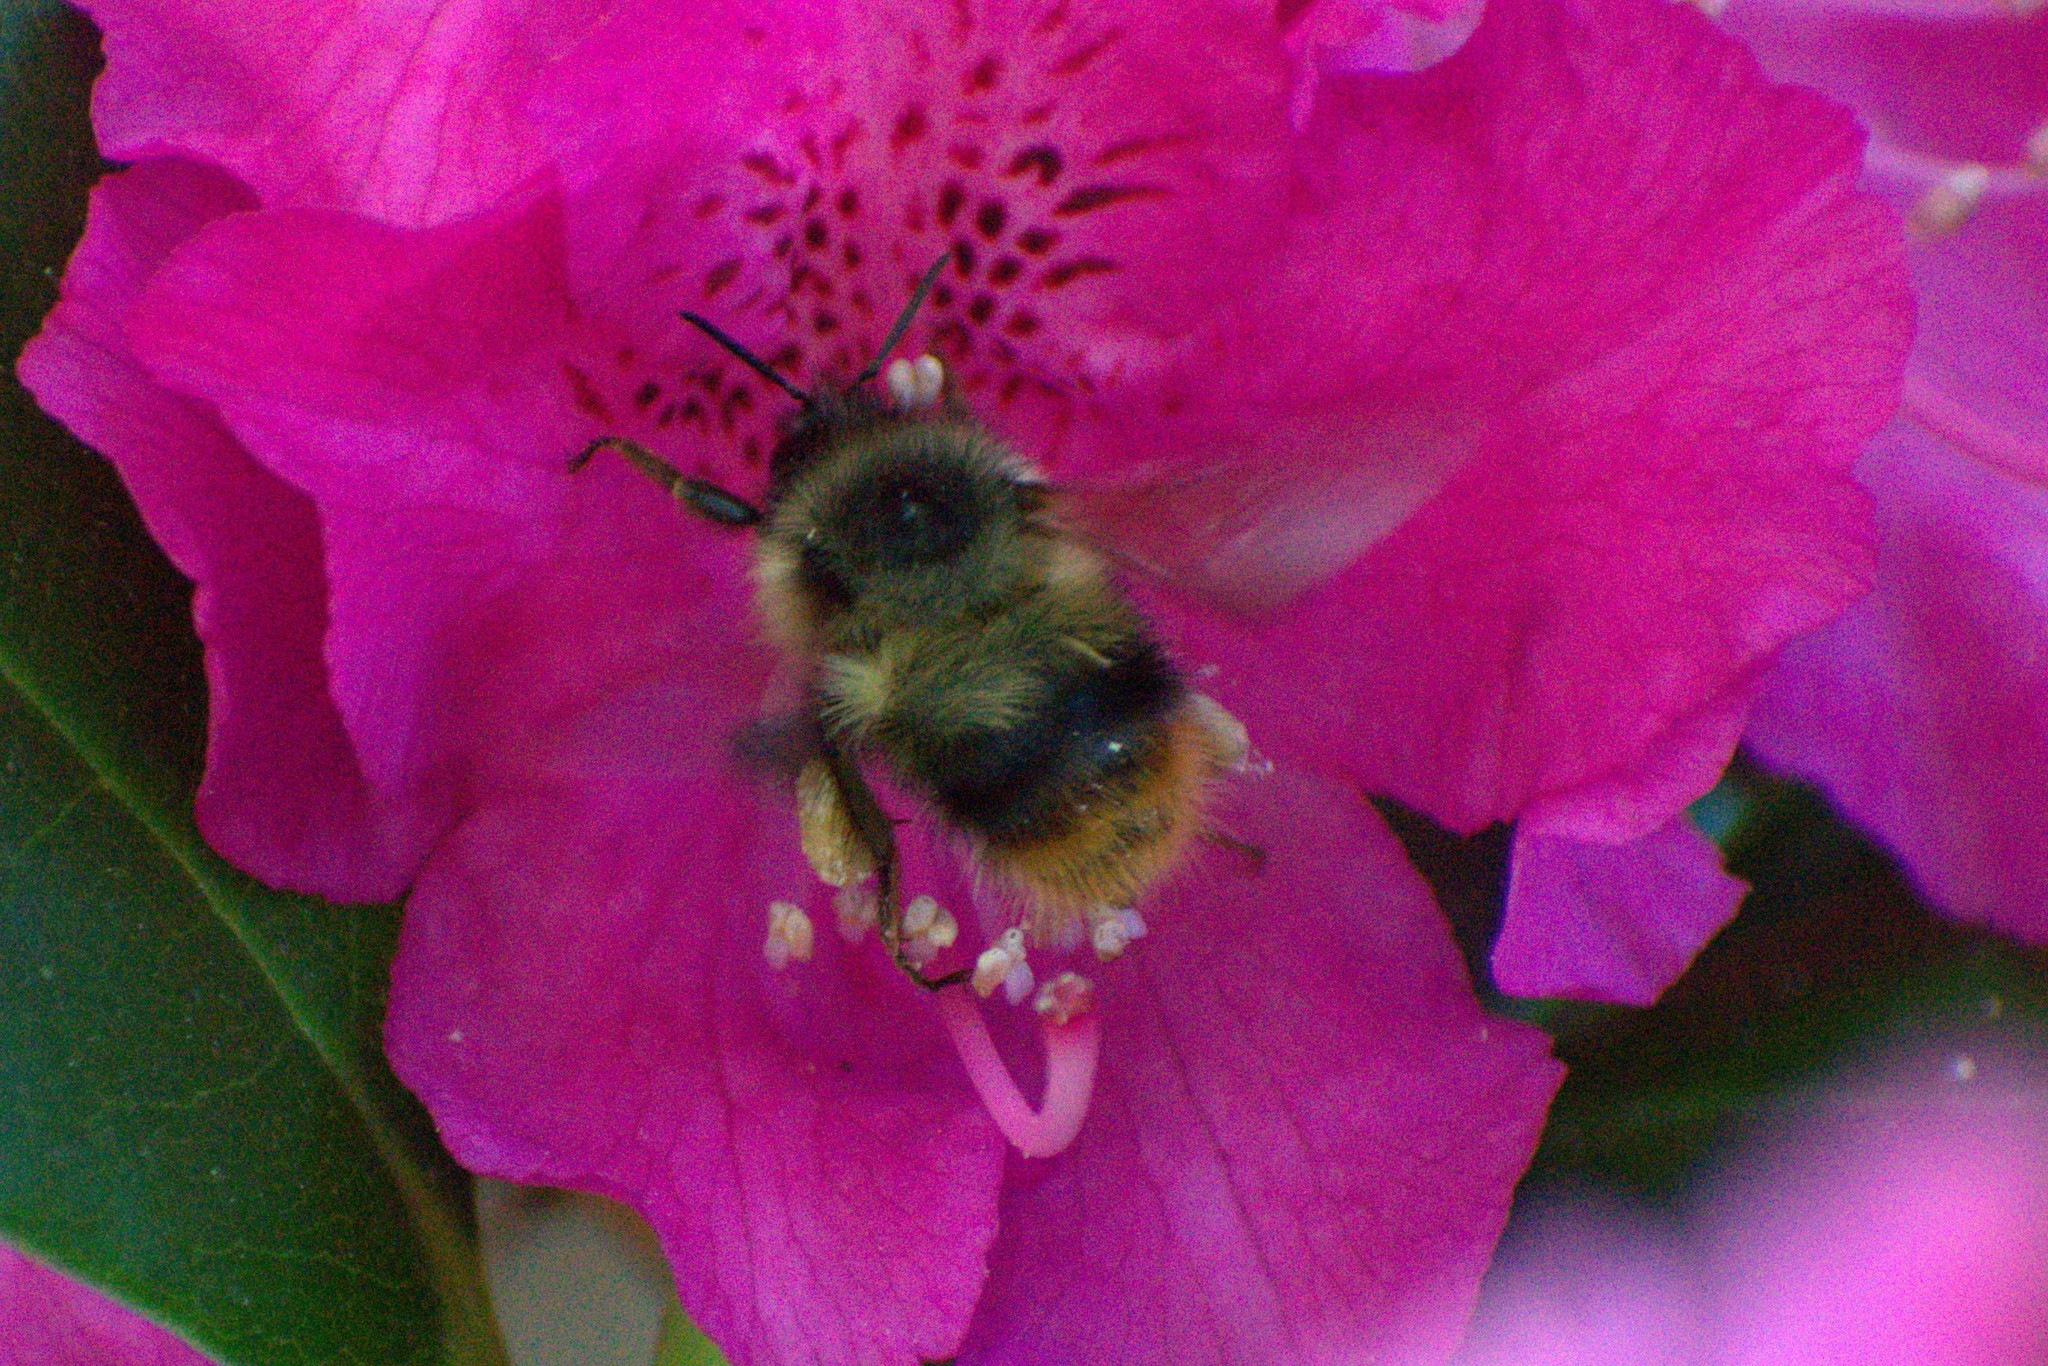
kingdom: Animalia
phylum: Arthropoda
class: Insecta
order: Hymenoptera
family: Apidae
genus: Bombus
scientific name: Bombus mixtus
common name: Fuzzy-horned bumble bee
